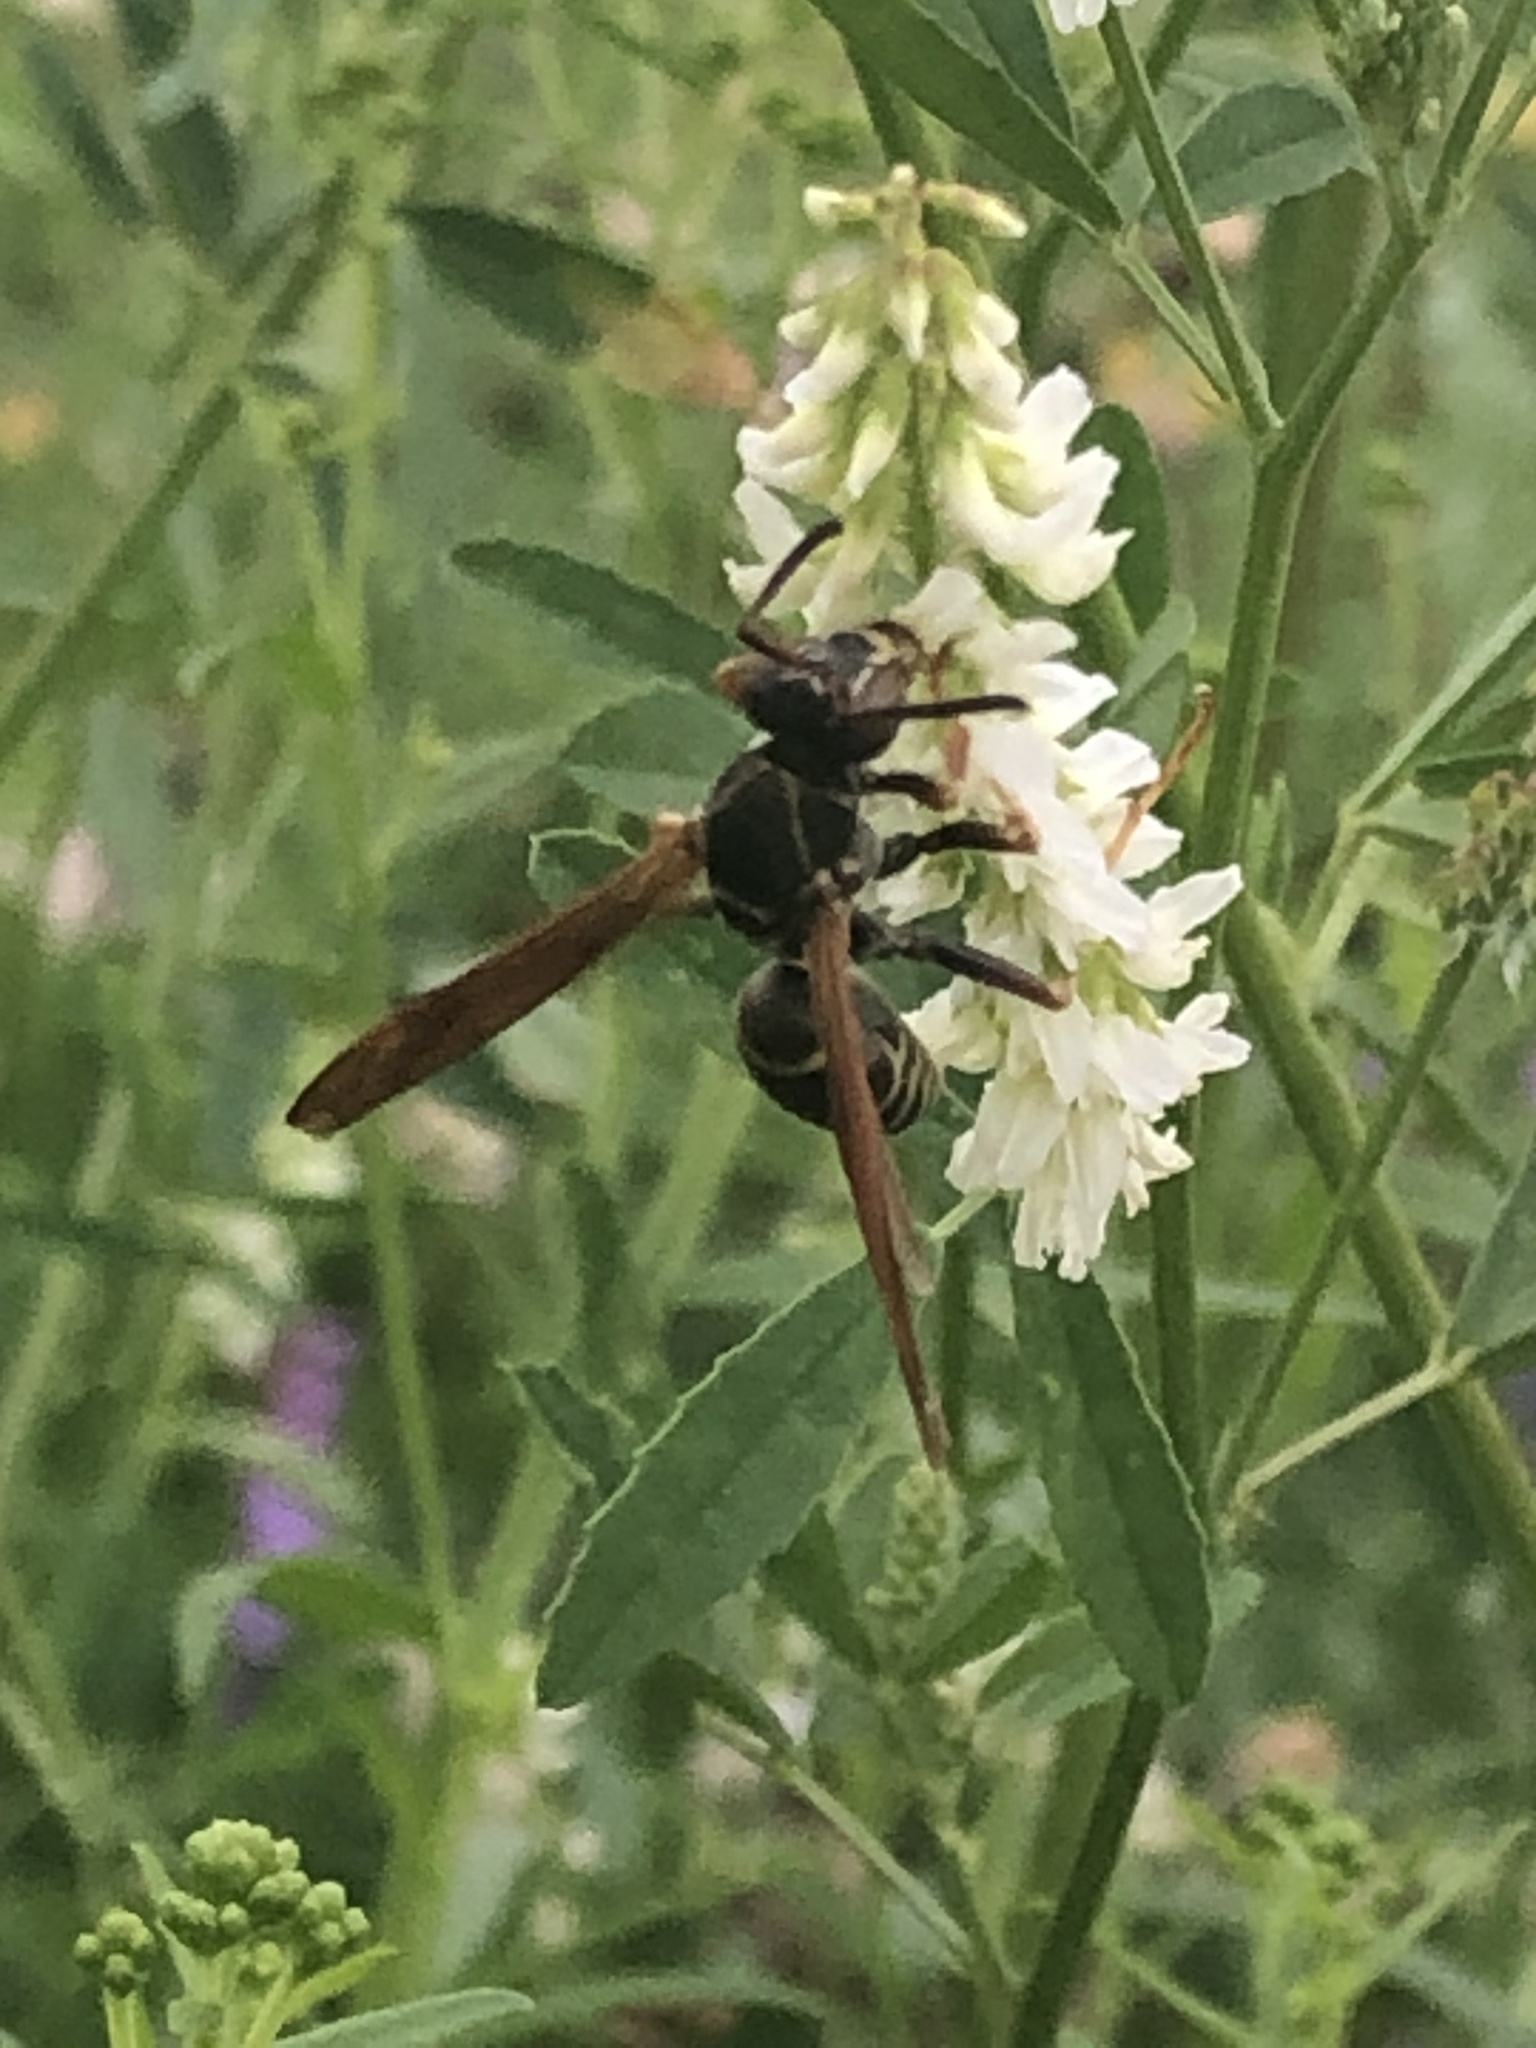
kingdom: Animalia
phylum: Arthropoda
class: Insecta
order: Hymenoptera
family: Eumenidae
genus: Polistes
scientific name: Polistes fuscatus
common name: Dark paper wasp
